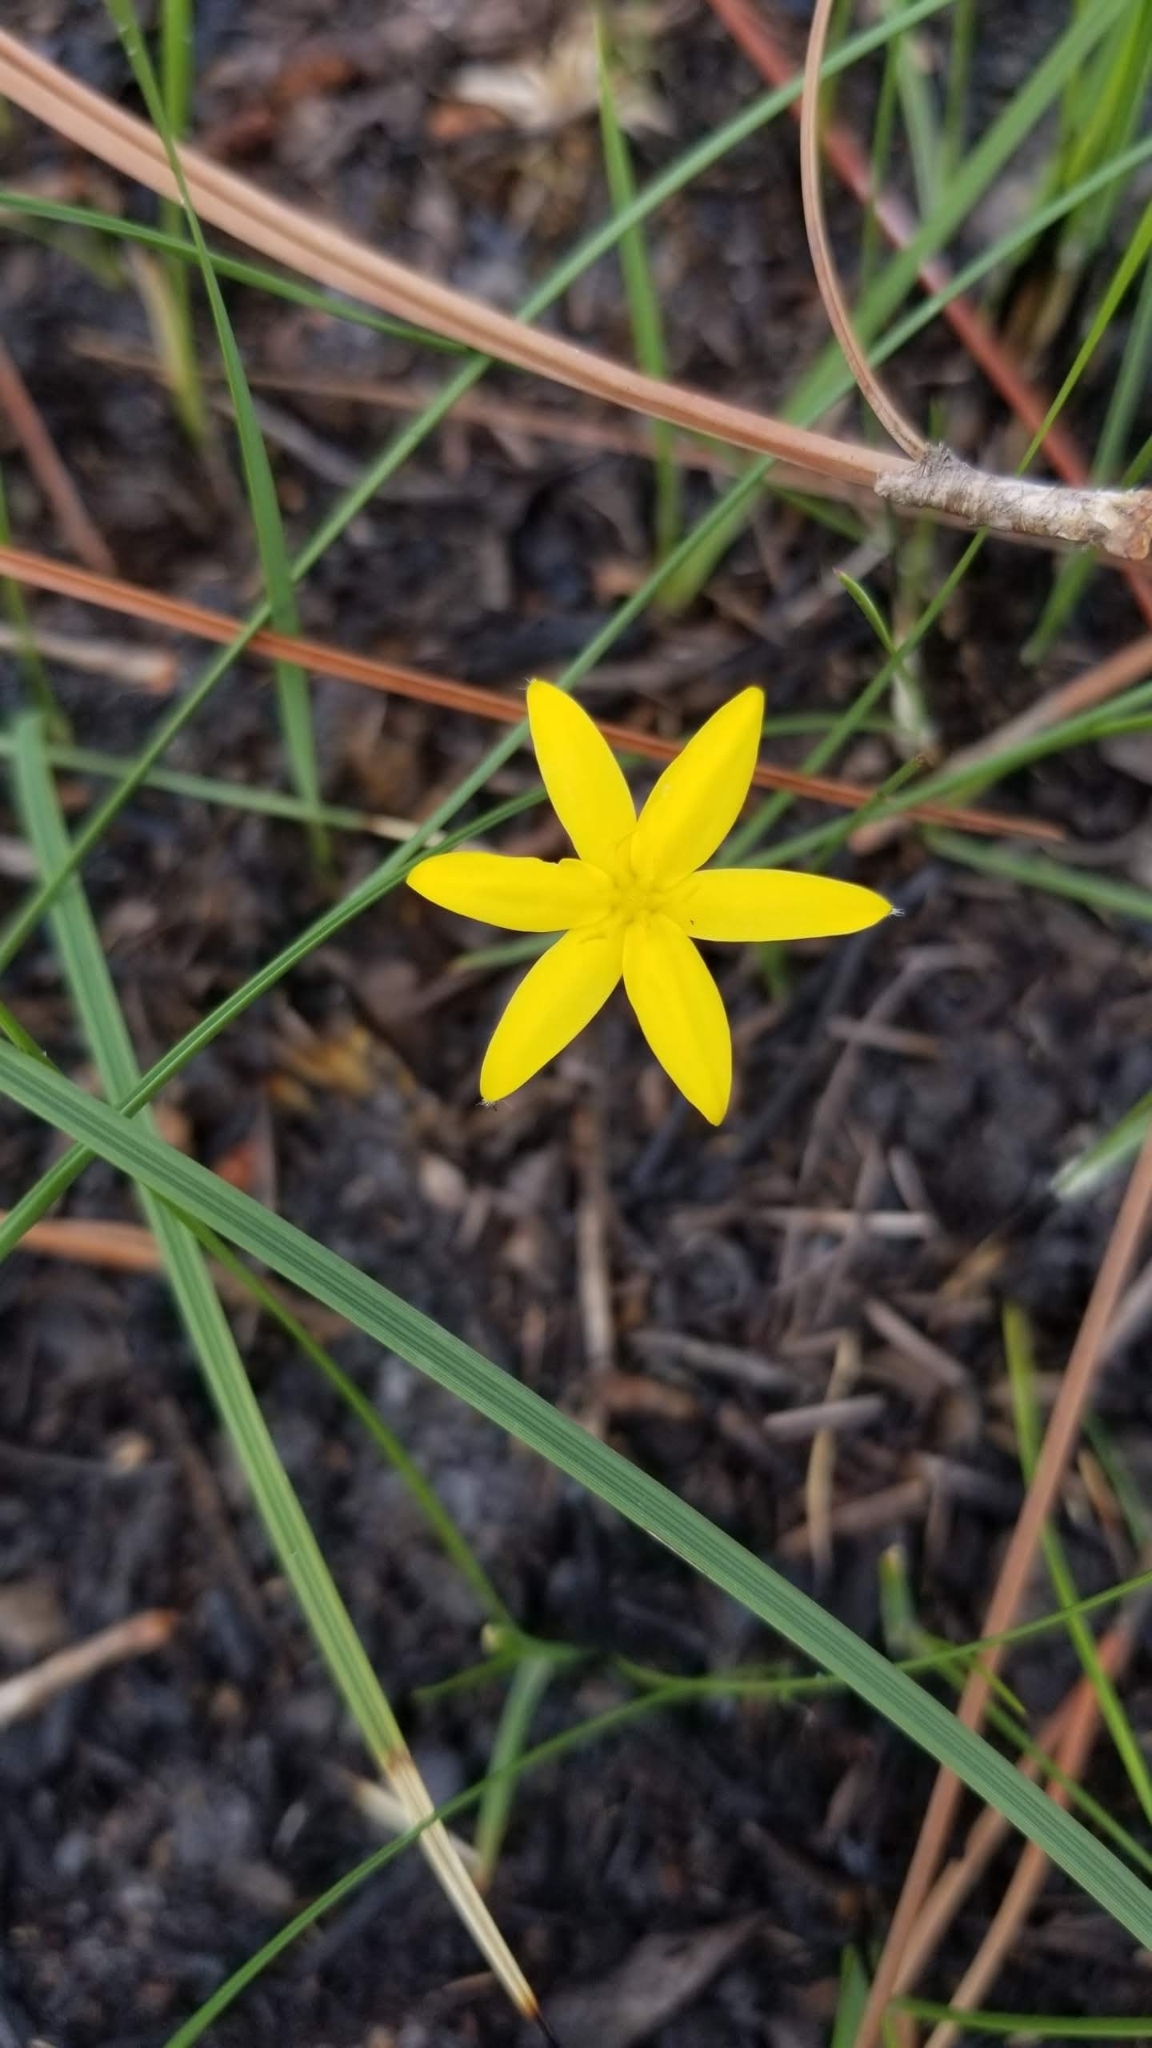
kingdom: Plantae
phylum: Tracheophyta
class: Liliopsida
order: Asparagales
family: Hypoxidaceae
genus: Hypoxis
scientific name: Hypoxis juncea
